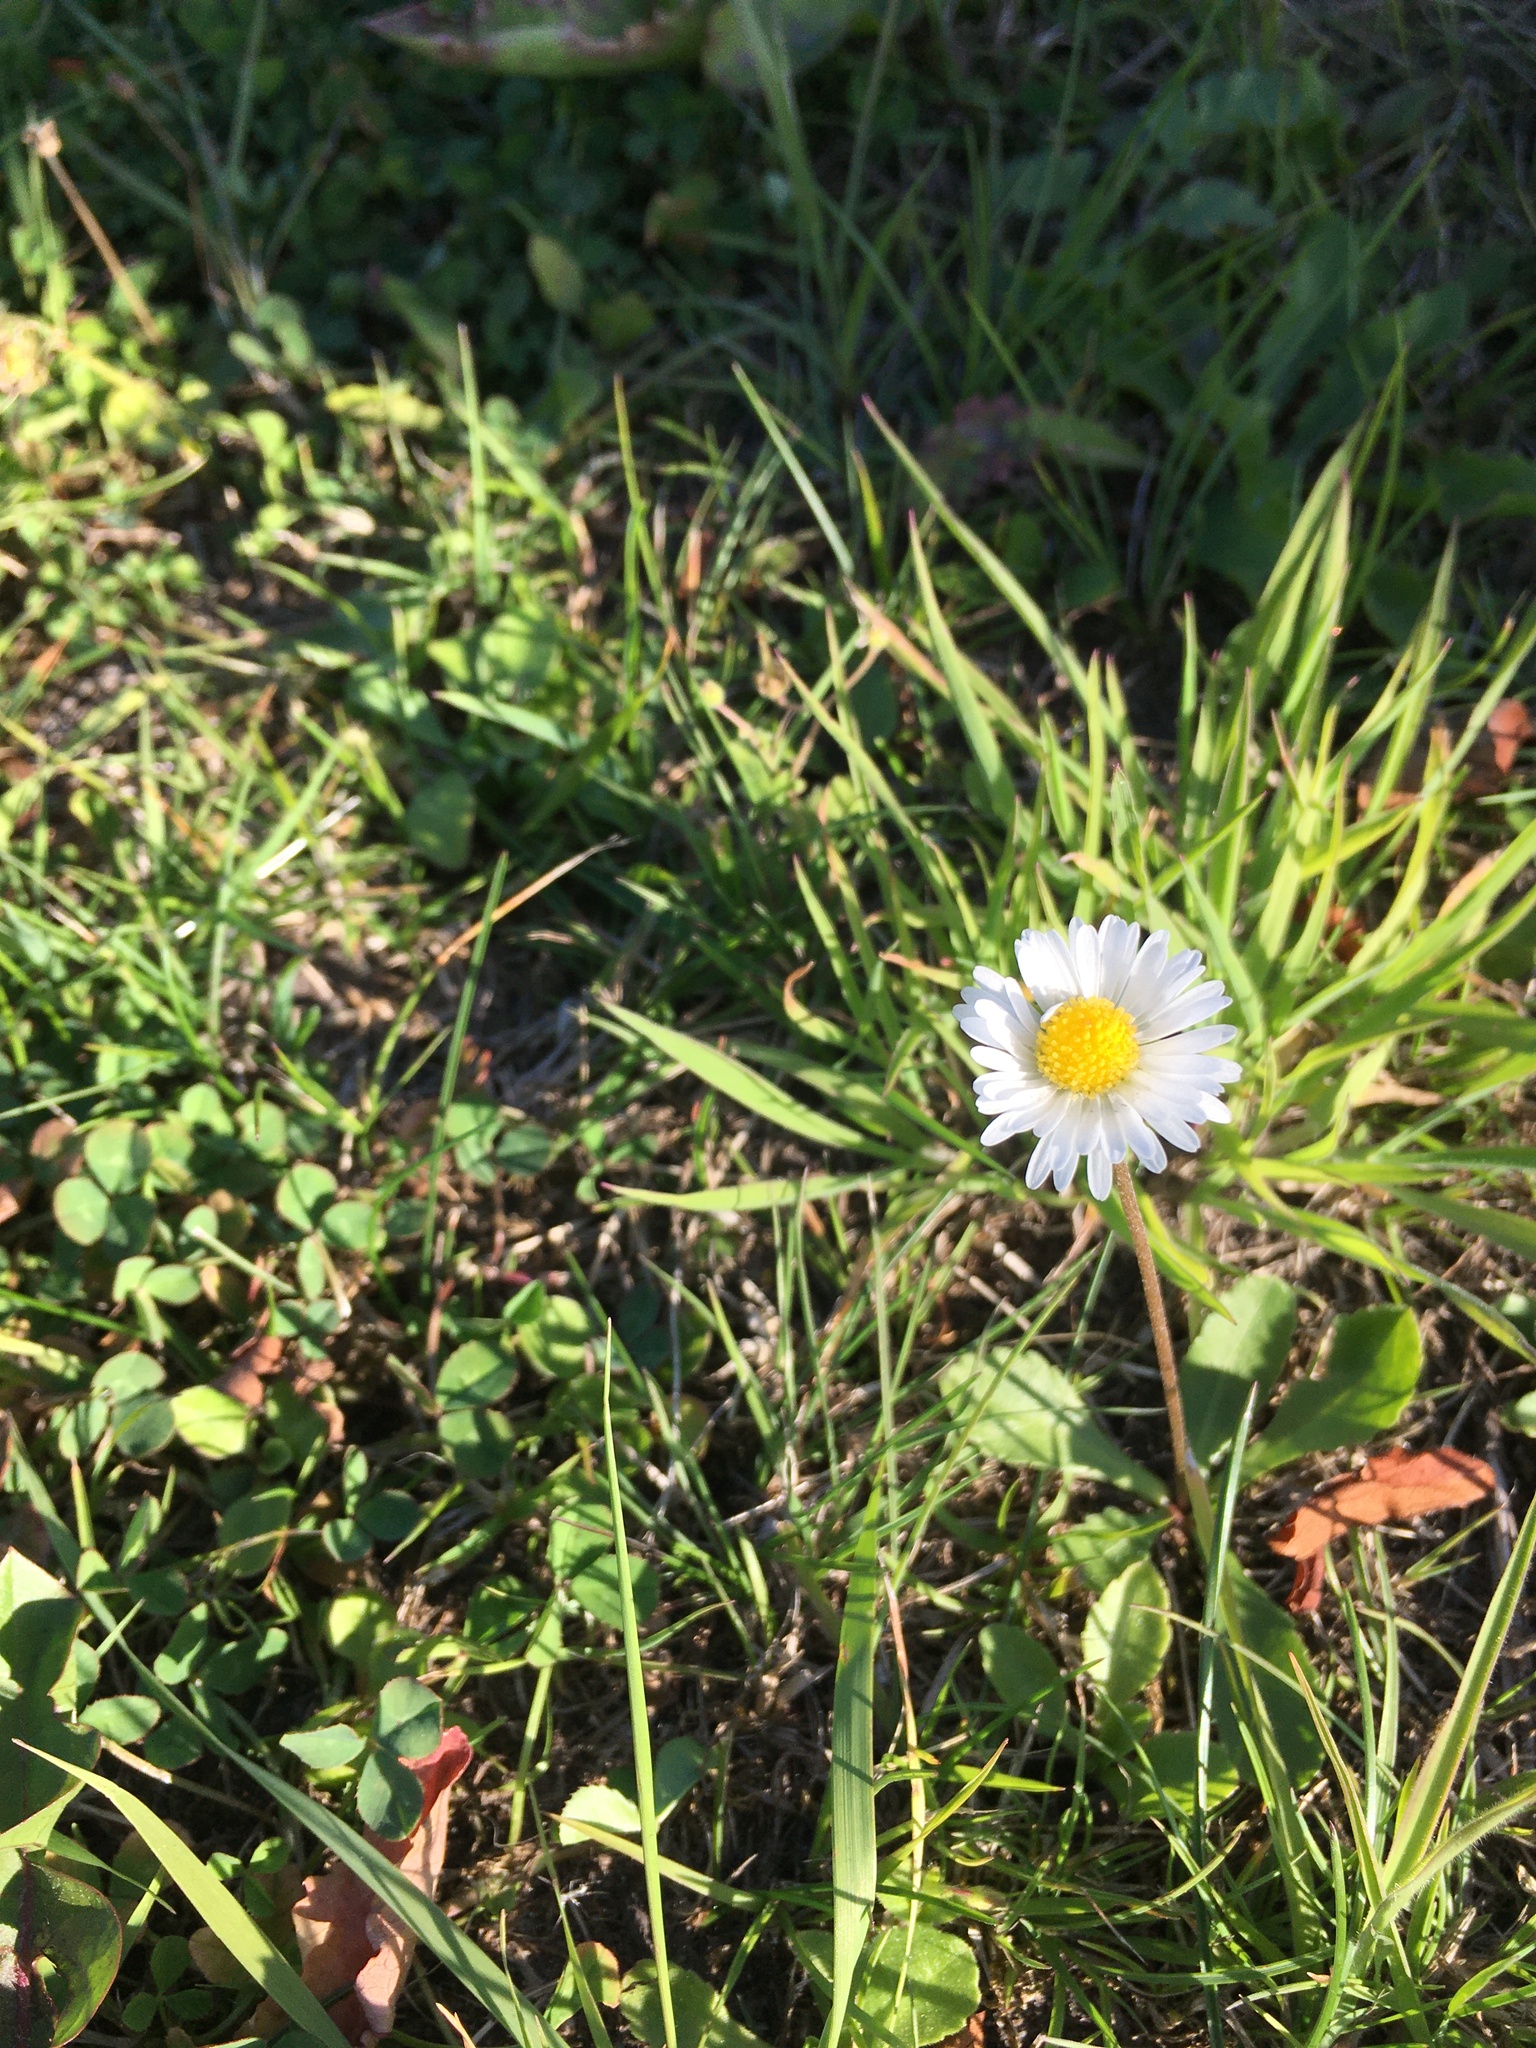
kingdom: Plantae
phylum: Tracheophyta
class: Magnoliopsida
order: Asterales
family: Asteraceae
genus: Bellis
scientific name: Bellis perennis
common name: Lawndaisy
